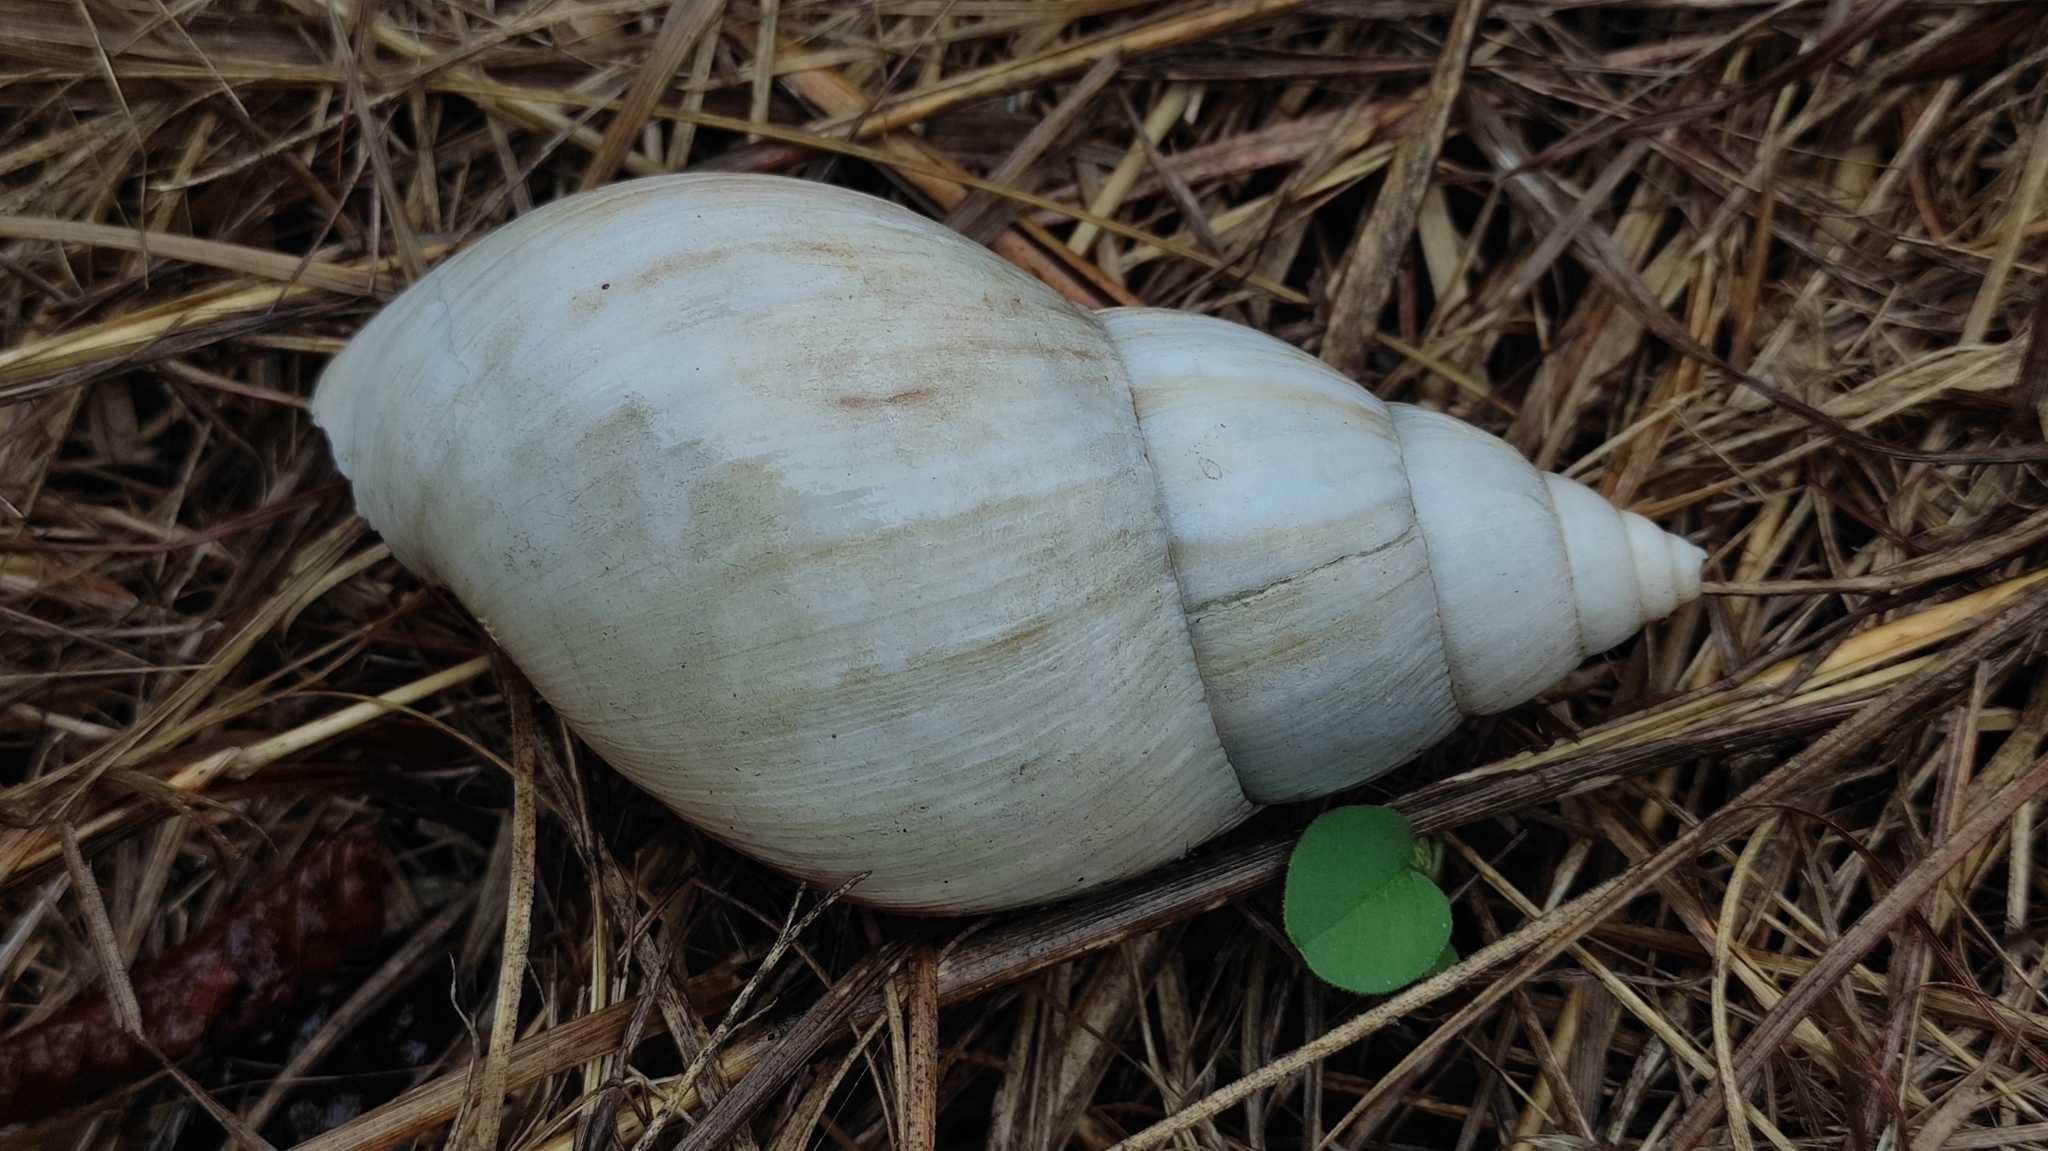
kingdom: Animalia
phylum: Mollusca
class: Gastropoda
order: Stylommatophora
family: Achatinidae
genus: Lissachatina
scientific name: Lissachatina fulica
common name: Giant african snail
